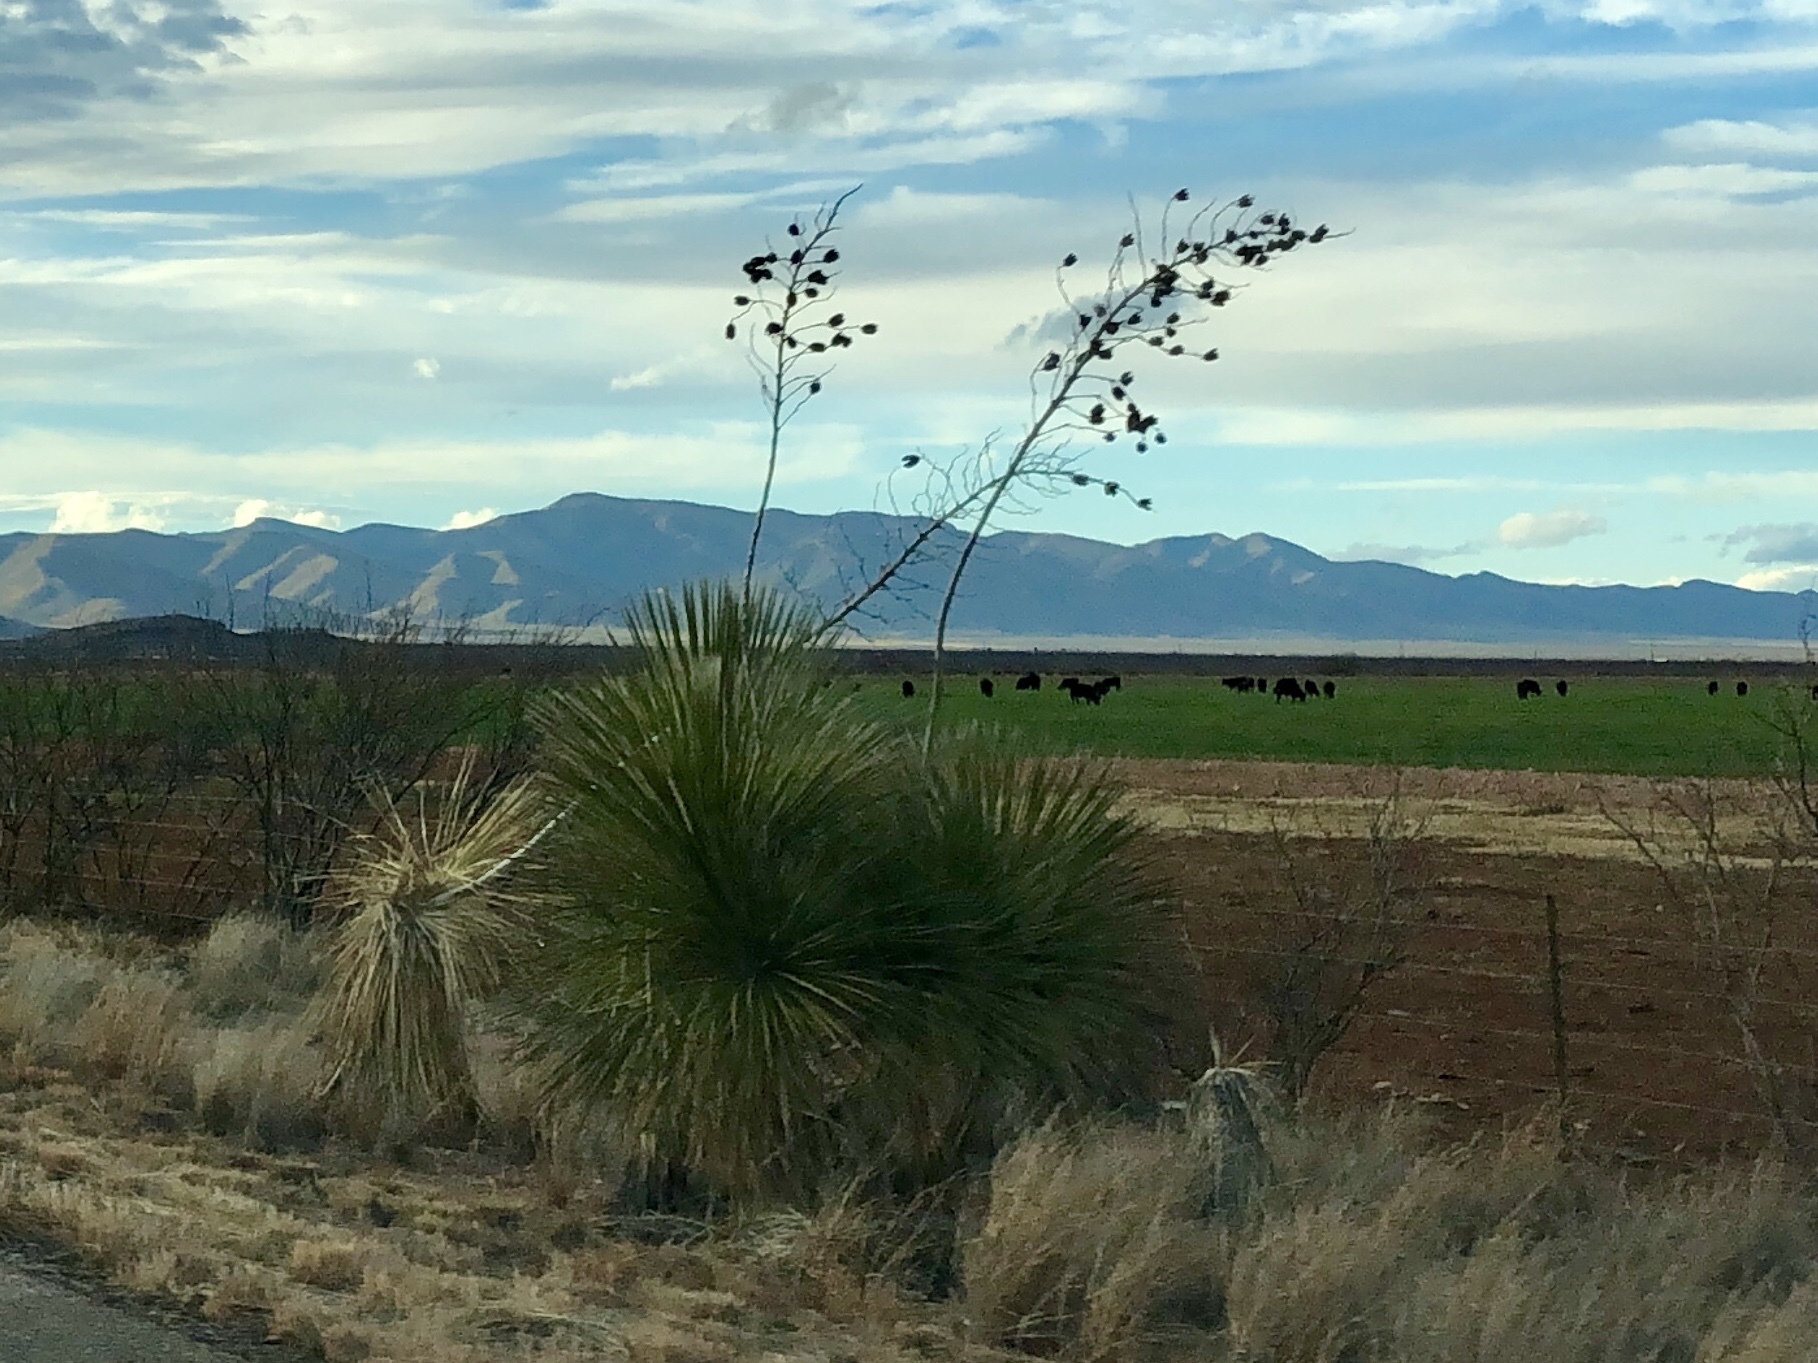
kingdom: Plantae
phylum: Tracheophyta
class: Liliopsida
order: Asparagales
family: Asparagaceae
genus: Yucca
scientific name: Yucca elata
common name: Palmella
